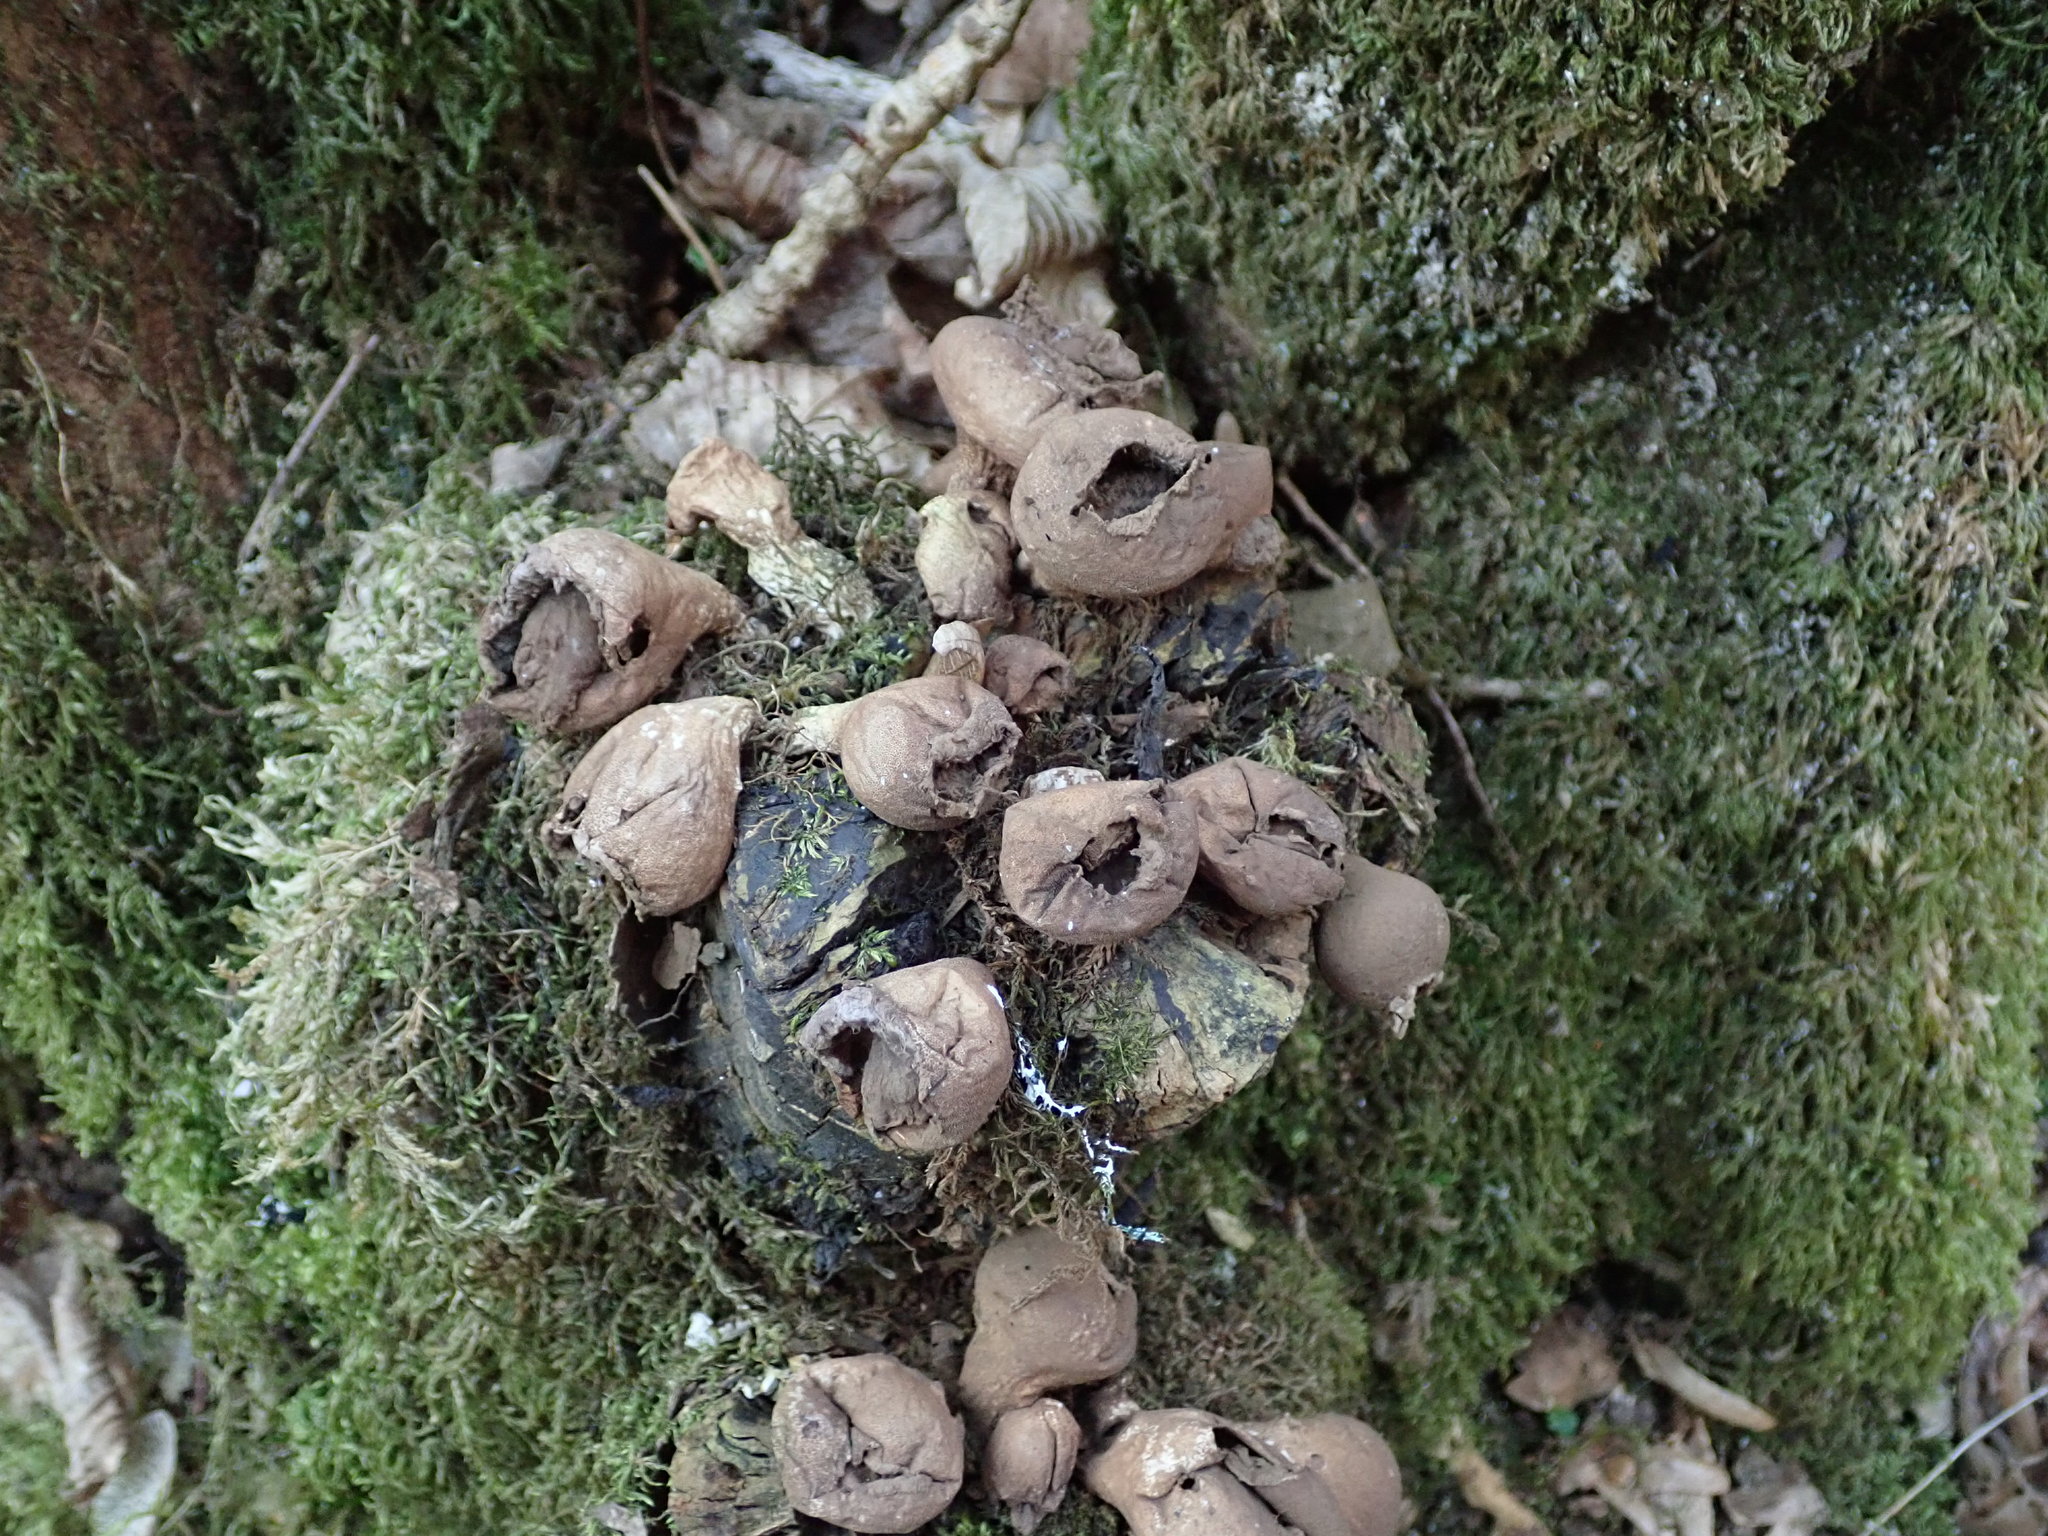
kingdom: Fungi
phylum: Basidiomycota
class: Agaricomycetes
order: Agaricales
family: Lycoperdaceae
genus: Apioperdon
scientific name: Apioperdon pyriforme
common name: Pear-shaped puffball
